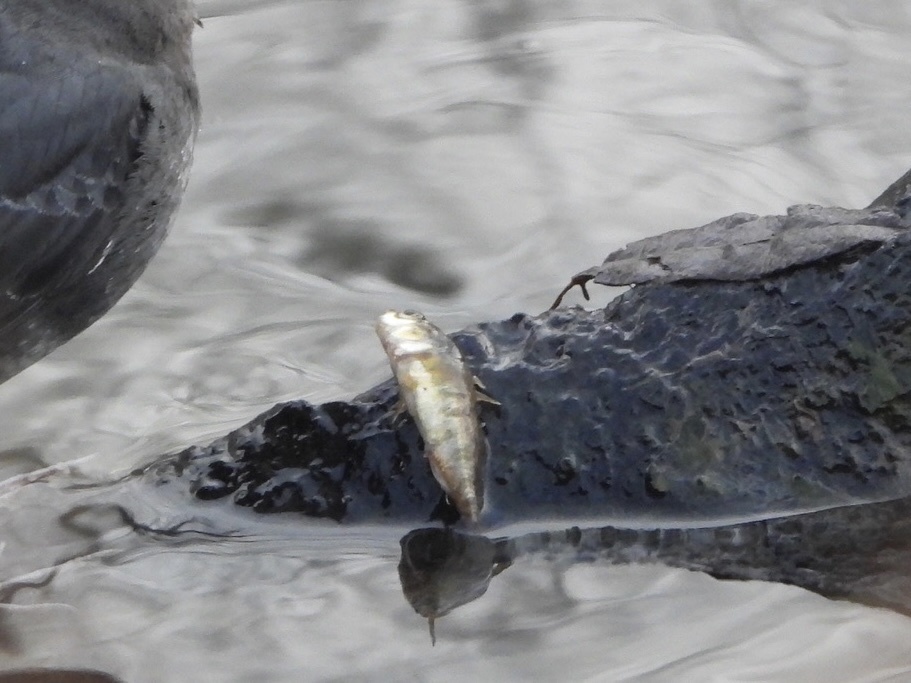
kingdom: Animalia
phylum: Chordata
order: Gasterosteiformes
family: Gasterosteidae
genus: Gasterosteus
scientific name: Gasterosteus aculeatus
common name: Three-spined stickleback
